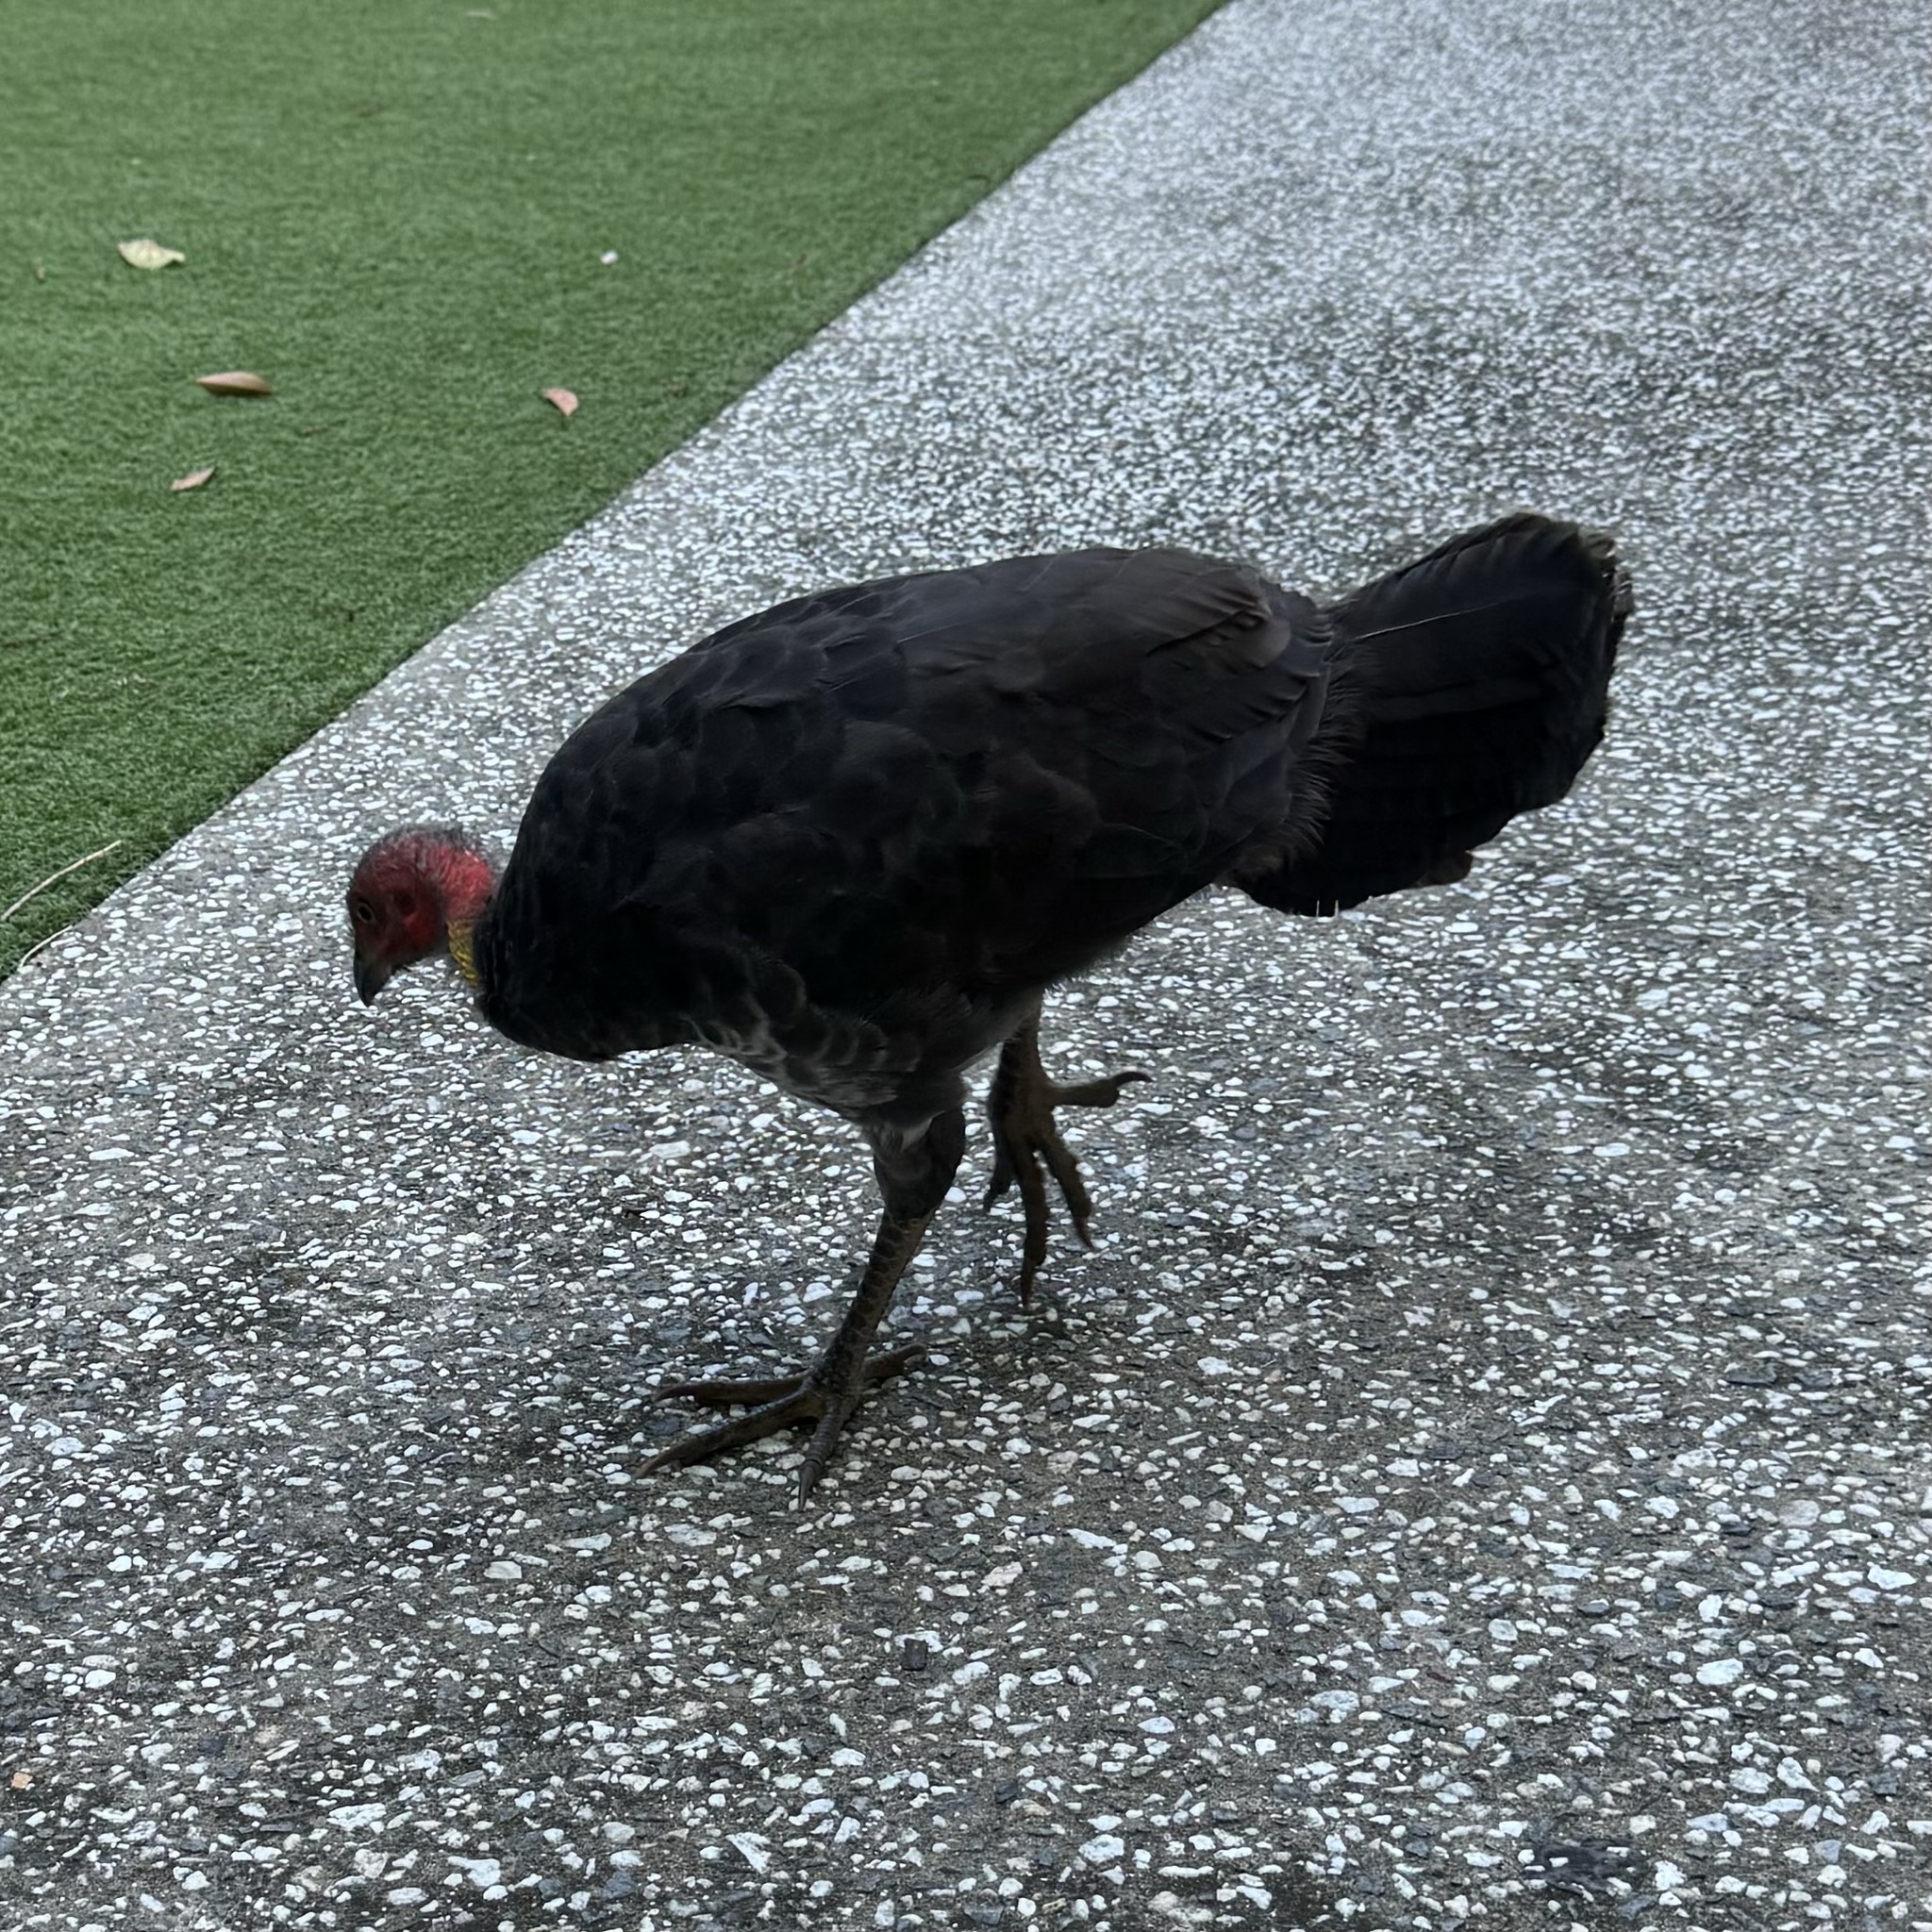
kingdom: Animalia
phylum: Chordata
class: Aves
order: Galliformes
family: Megapodiidae
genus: Alectura
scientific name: Alectura lathami
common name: Australian brushturkey
